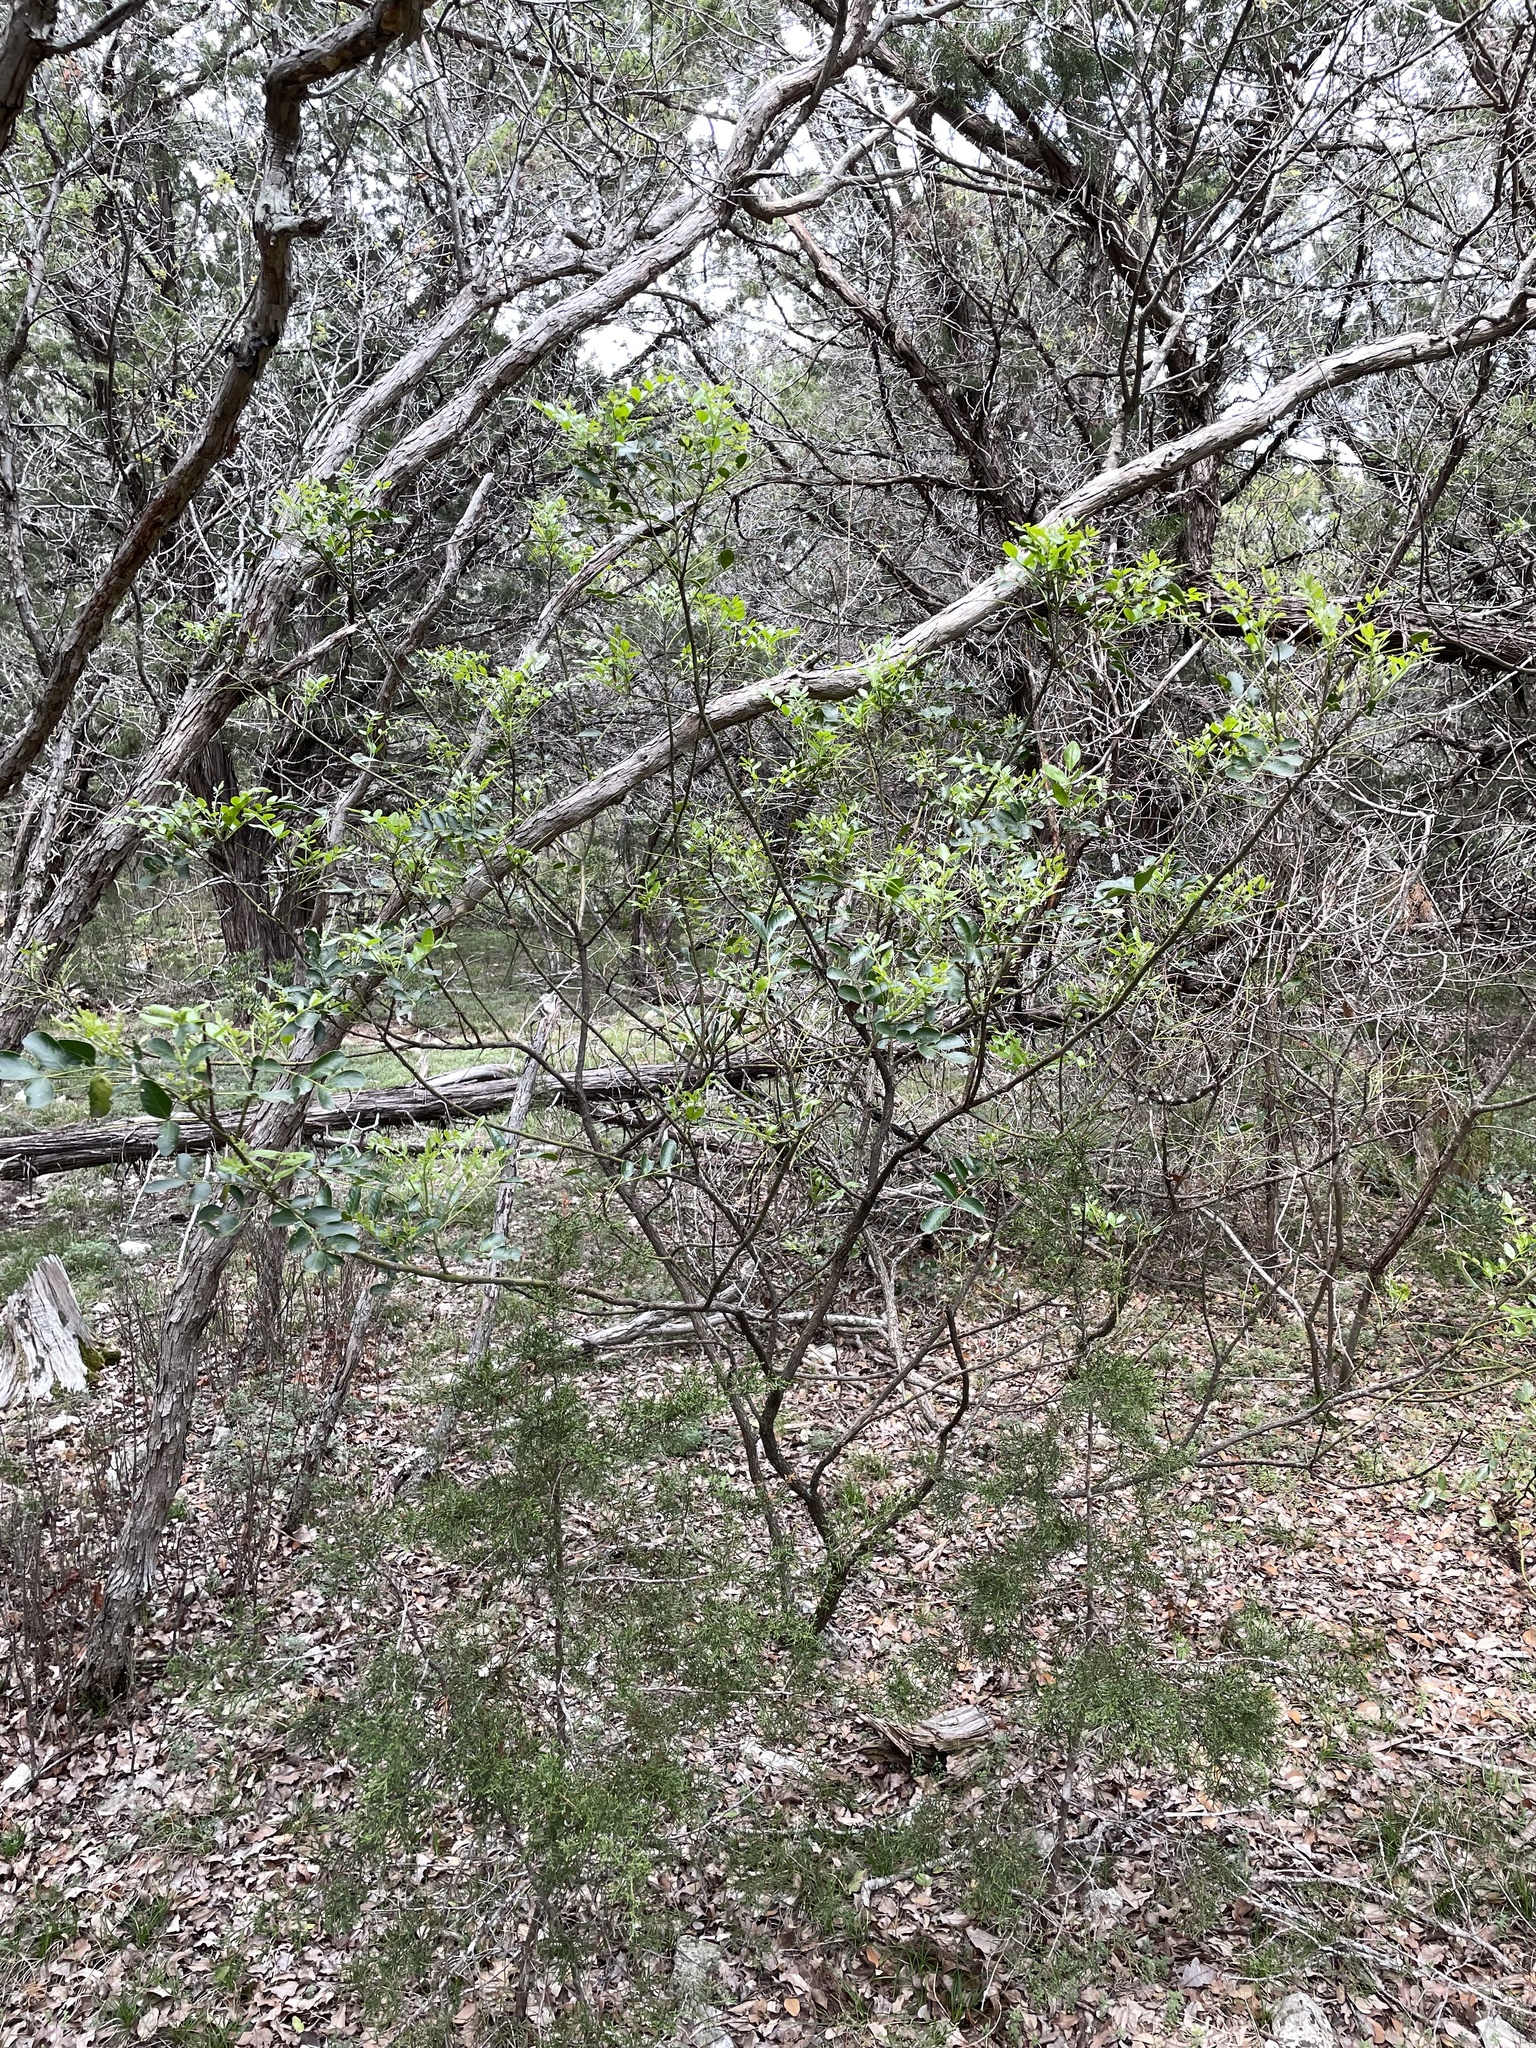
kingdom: Plantae
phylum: Tracheophyta
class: Magnoliopsida
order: Fabales
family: Fabaceae
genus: Dermatophyllum
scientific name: Dermatophyllum secundiflorum
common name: Texas-mountain-laurel
